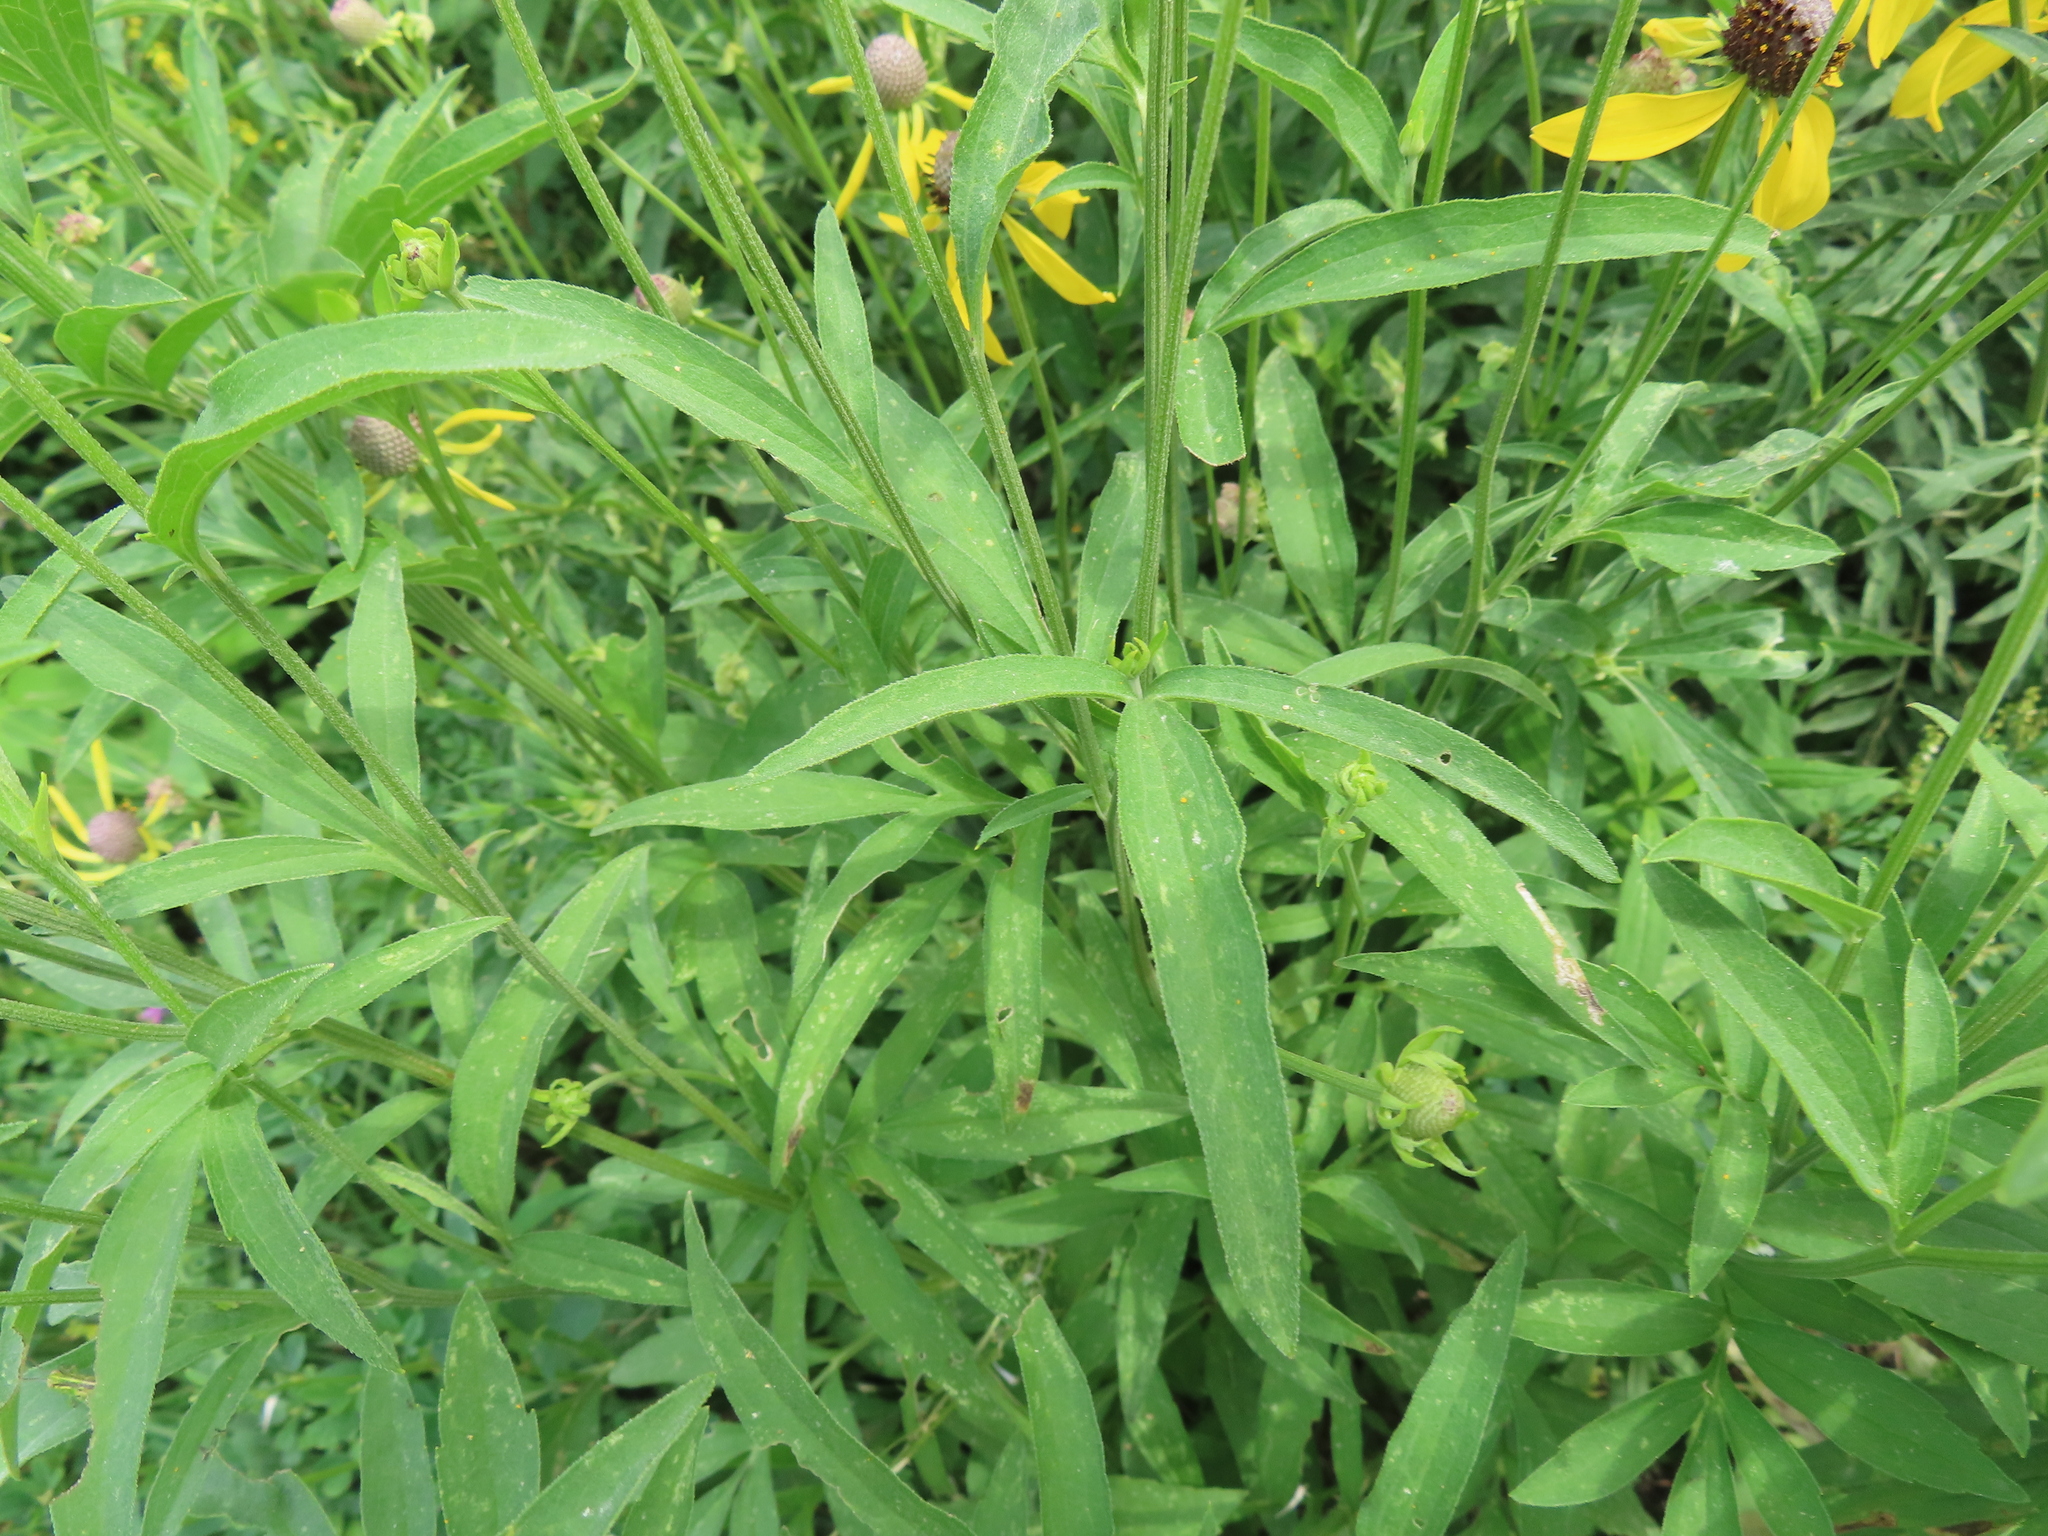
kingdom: Plantae
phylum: Tracheophyta
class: Magnoliopsida
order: Asterales
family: Asteraceae
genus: Ratibida
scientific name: Ratibida pinnata
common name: Drooping prairie-coneflower
